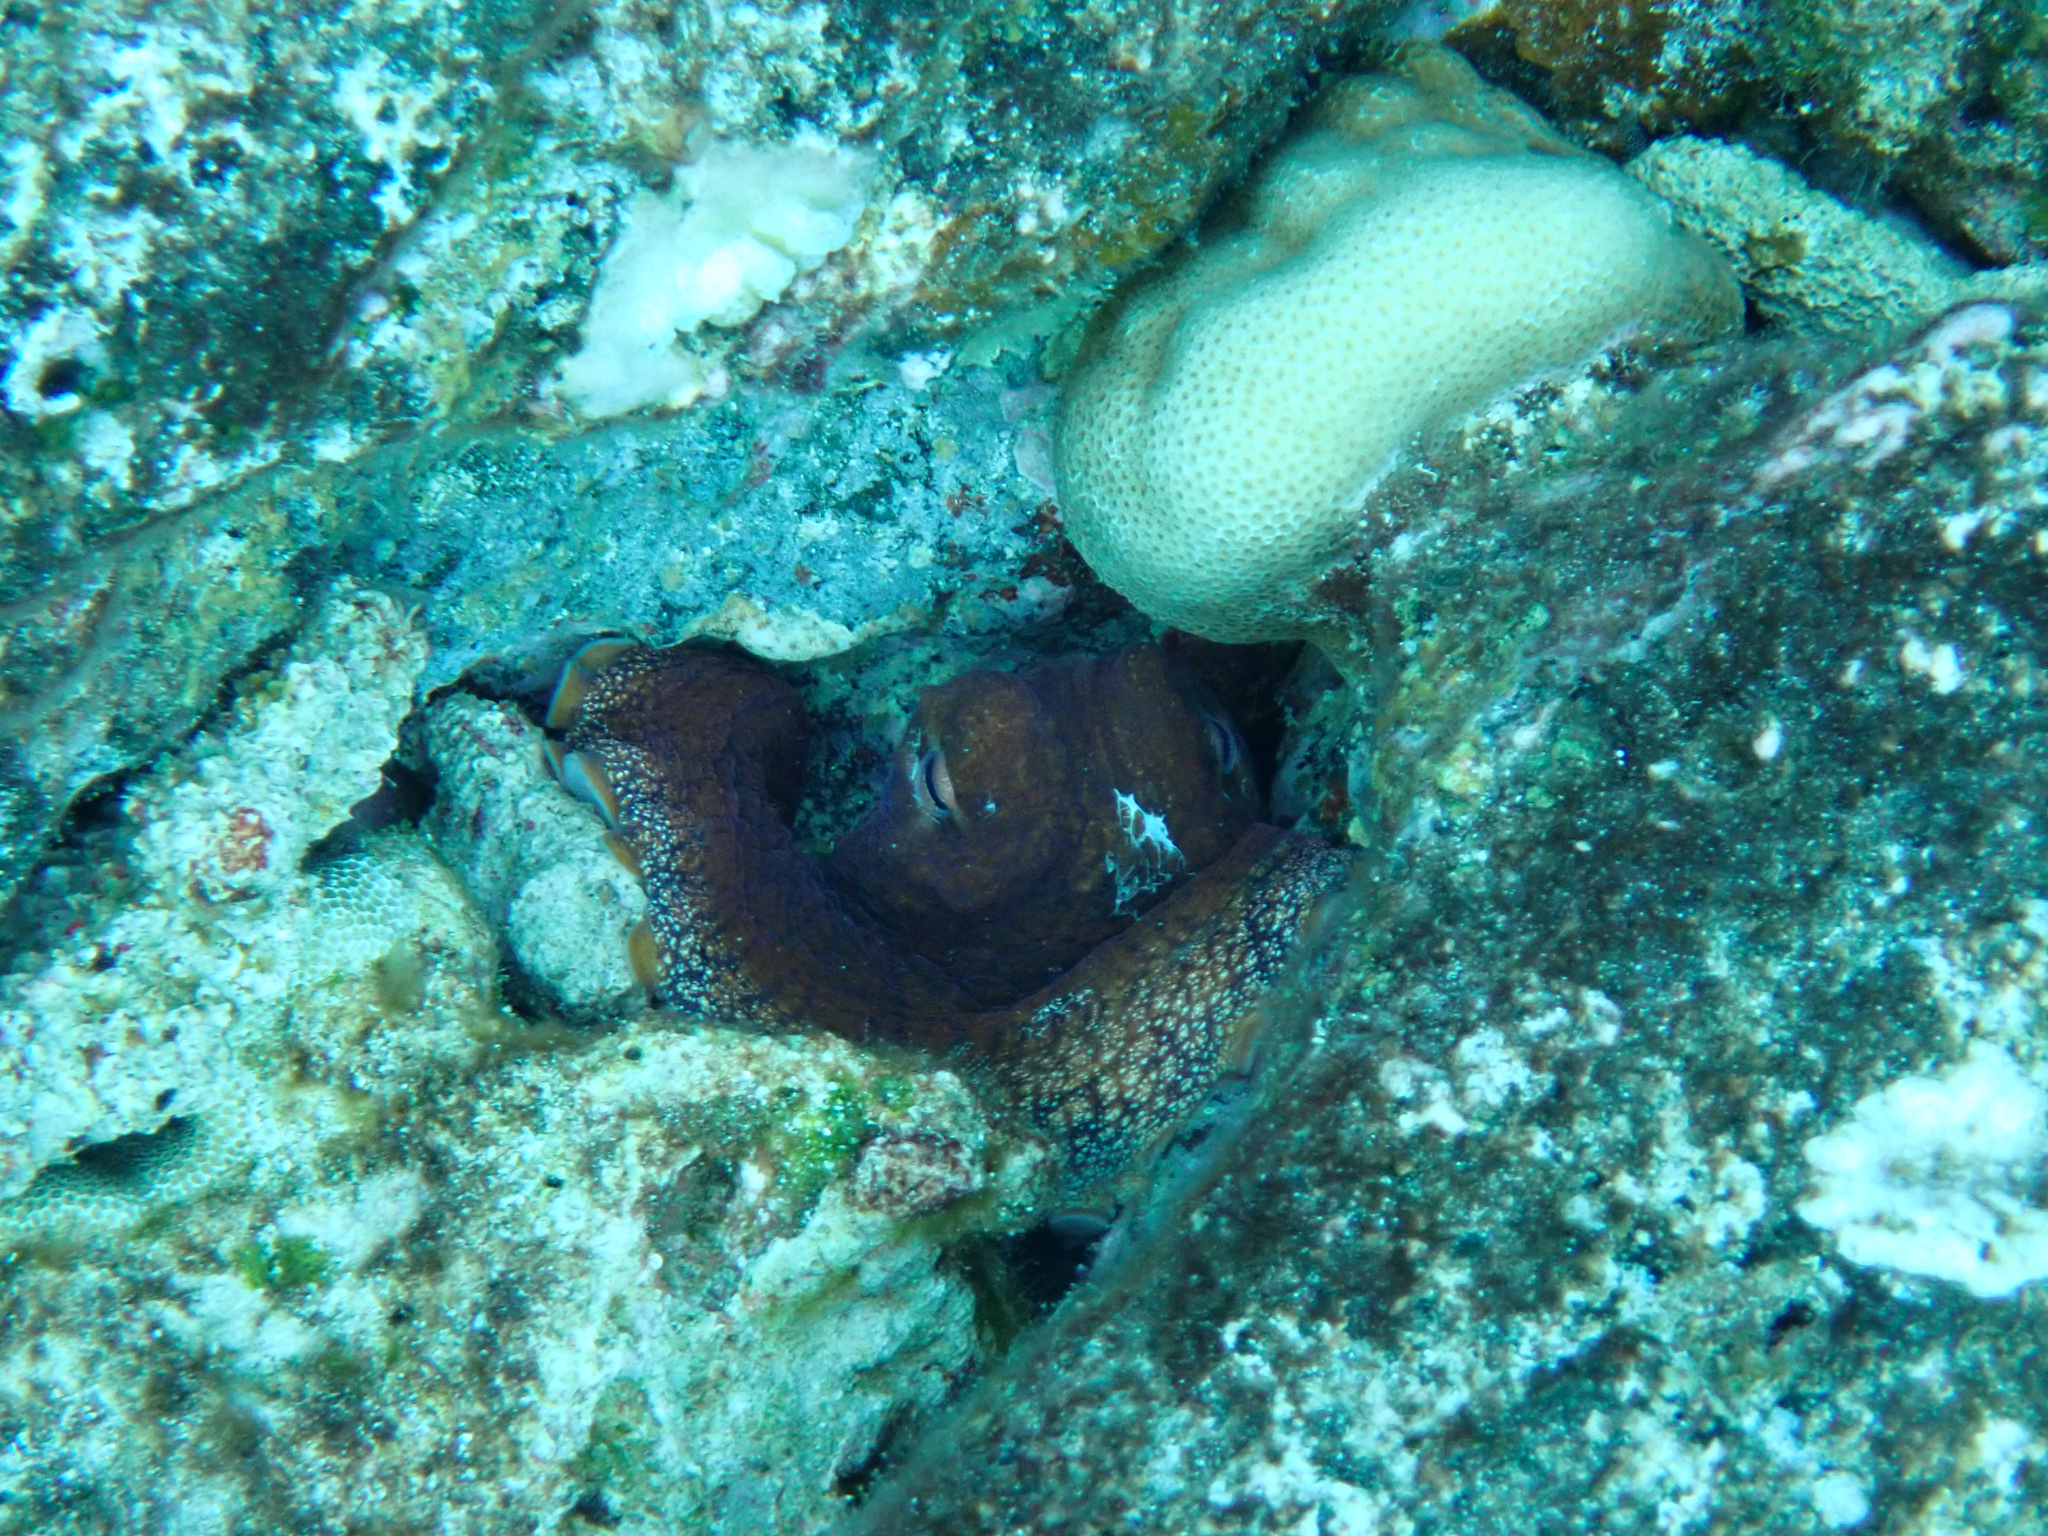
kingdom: Animalia
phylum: Mollusca
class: Cephalopoda
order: Octopoda
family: Octopodidae
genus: Octopus
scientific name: Octopus cyanea
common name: Cyane's octopus
